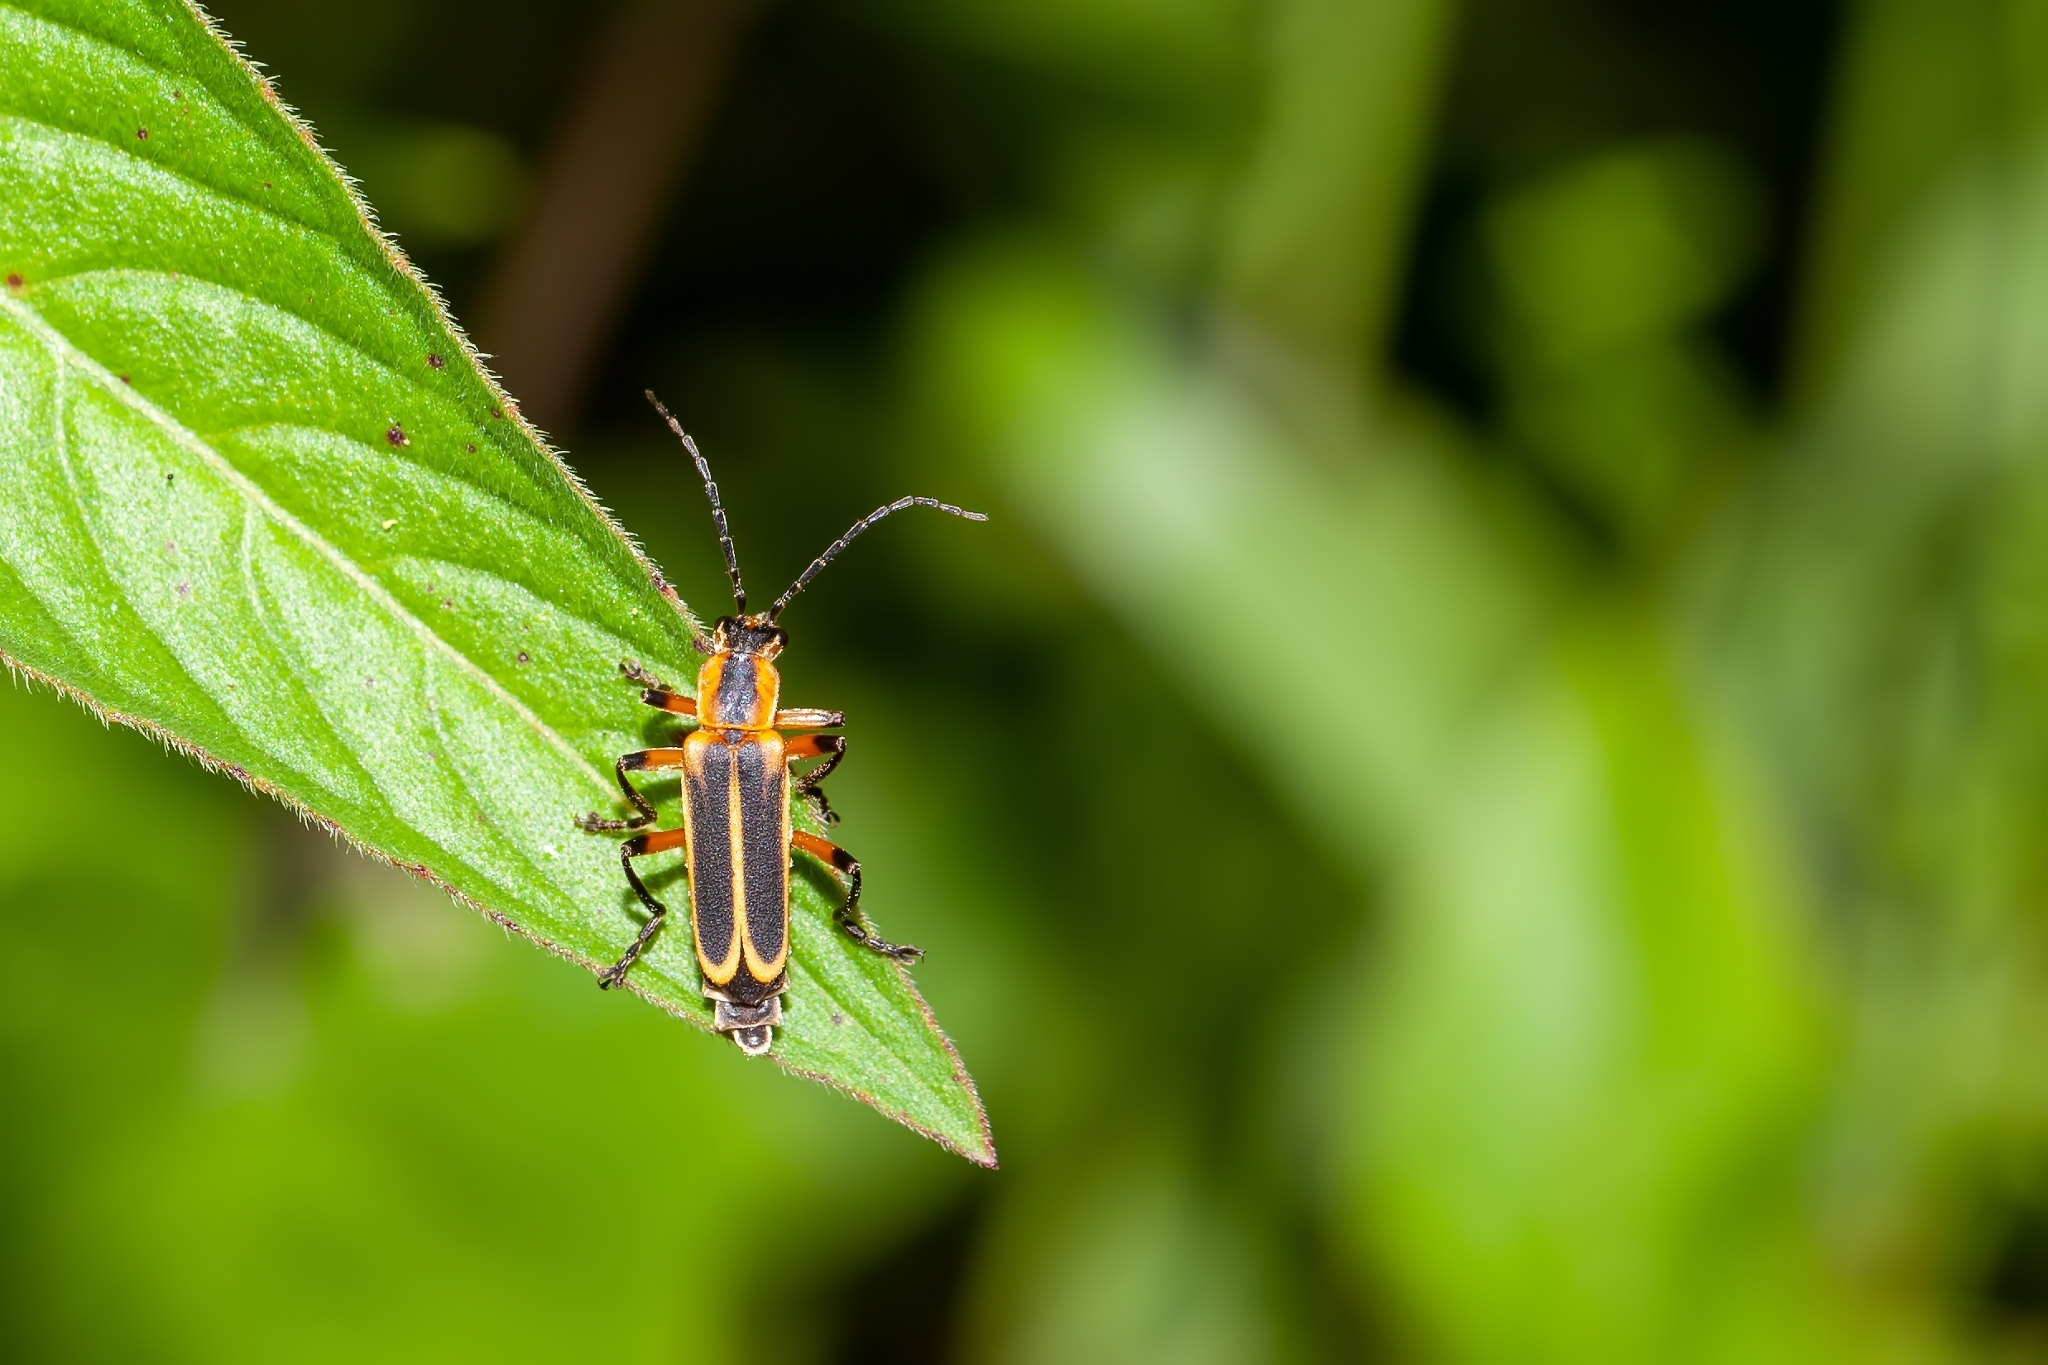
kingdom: Animalia
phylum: Arthropoda
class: Insecta
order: Coleoptera
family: Cantharidae
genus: Chauliognathus
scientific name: Chauliognathus marginatus
